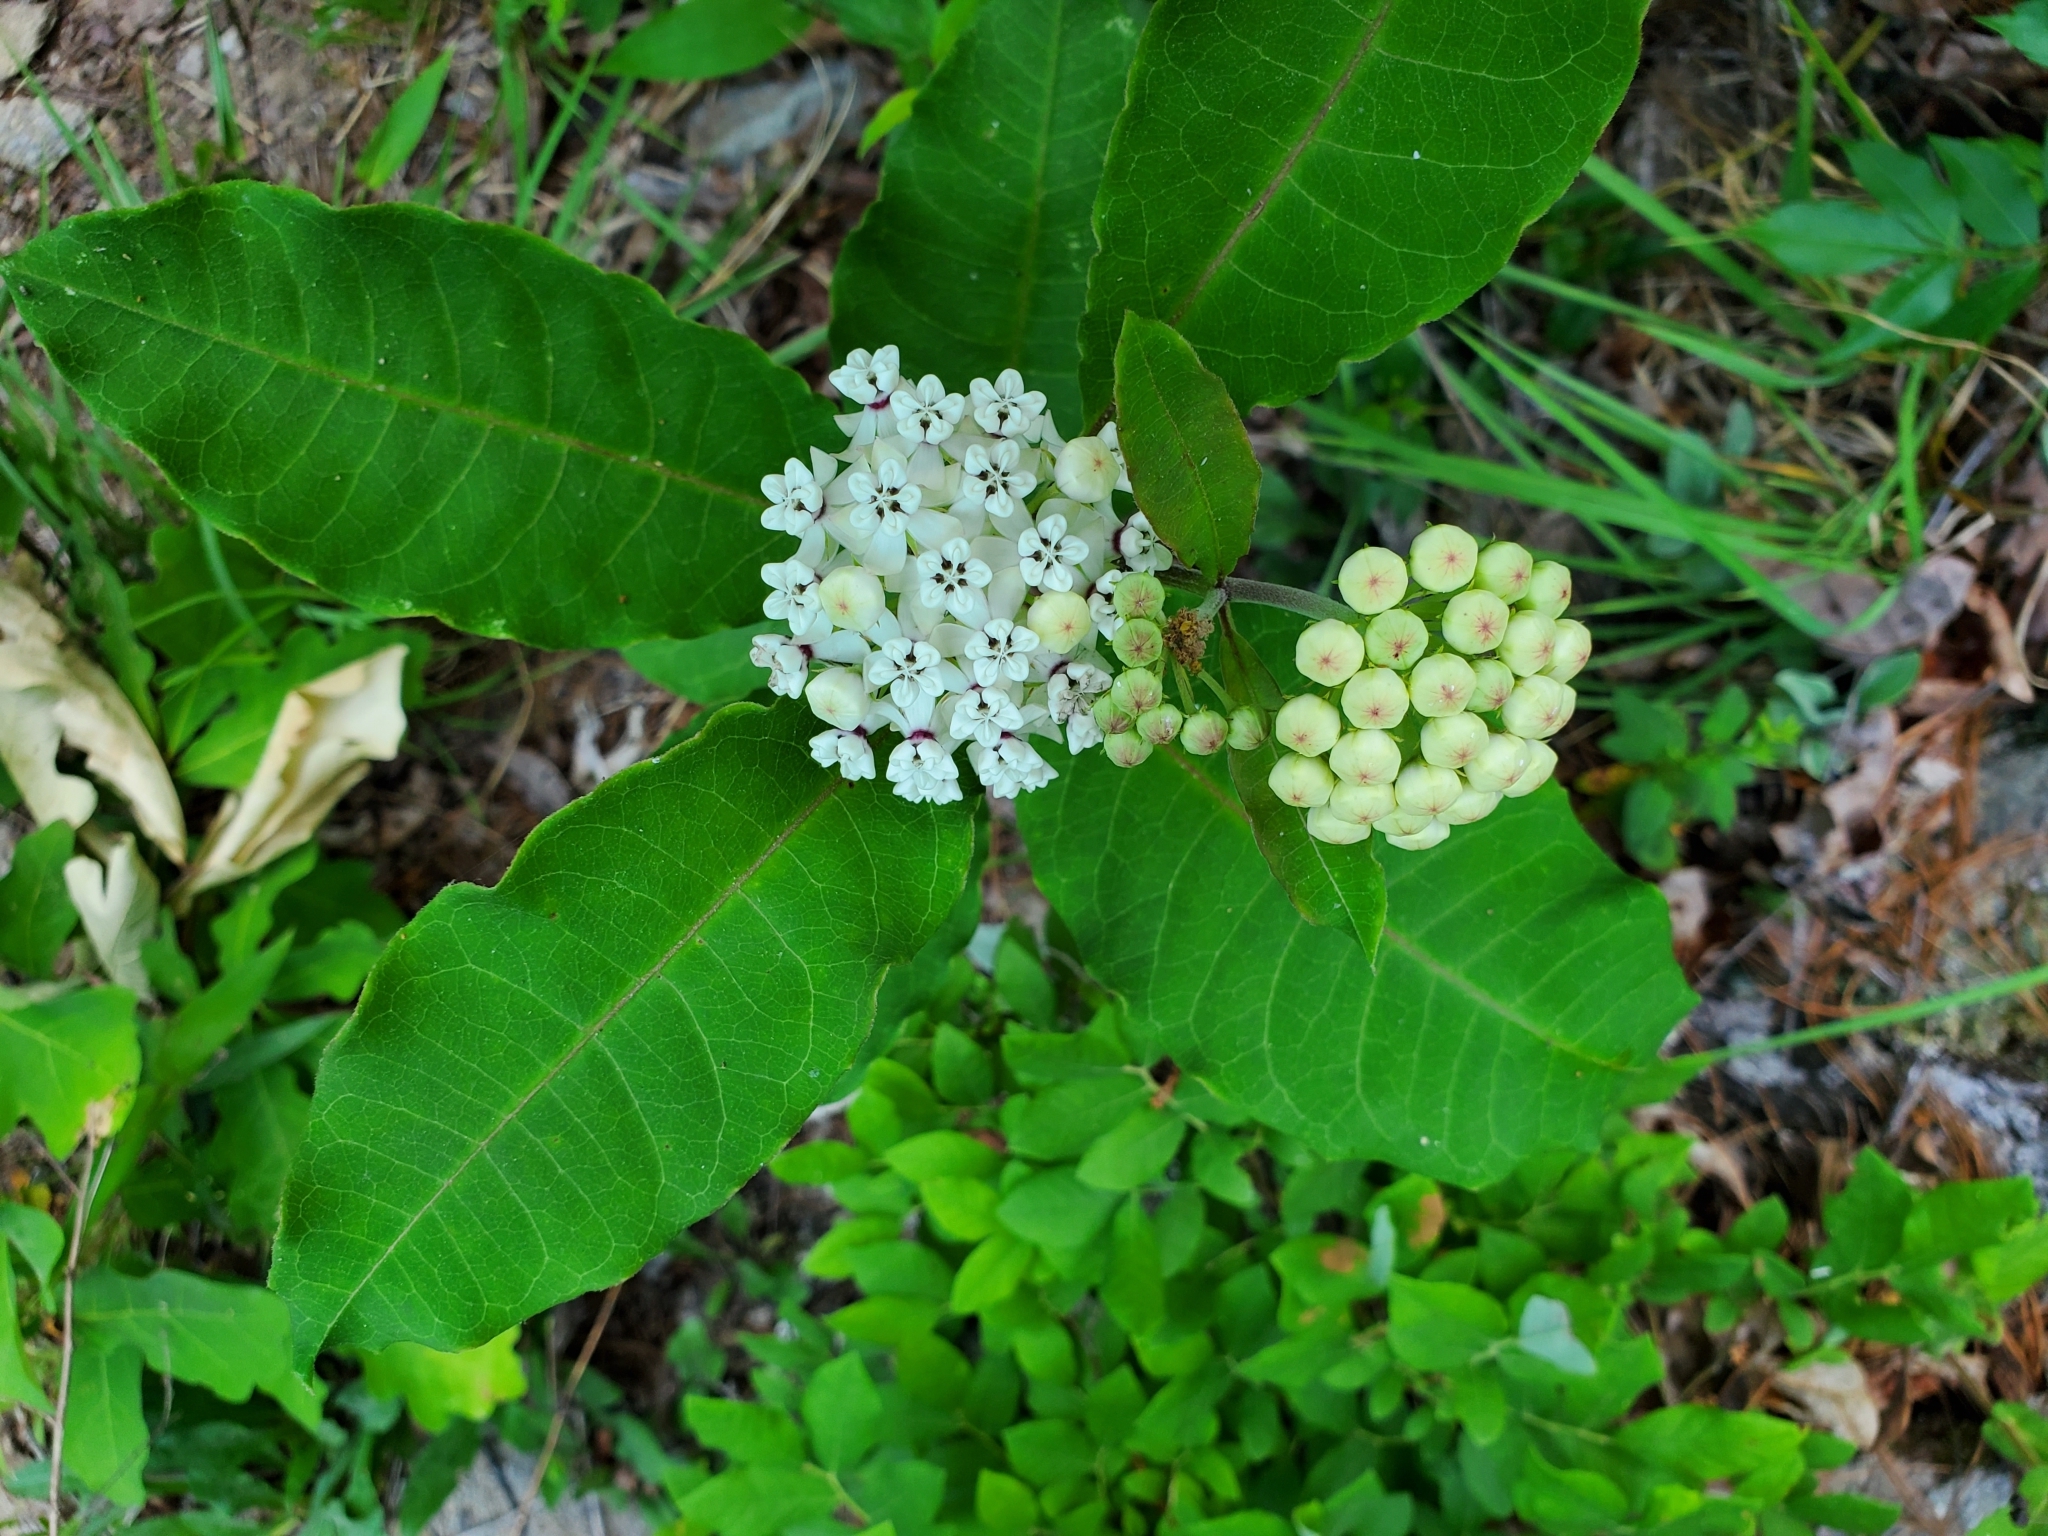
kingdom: Plantae
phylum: Tracheophyta
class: Magnoliopsida
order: Gentianales
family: Apocynaceae
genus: Asclepias
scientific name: Asclepias variegata
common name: Variegated milkweed
